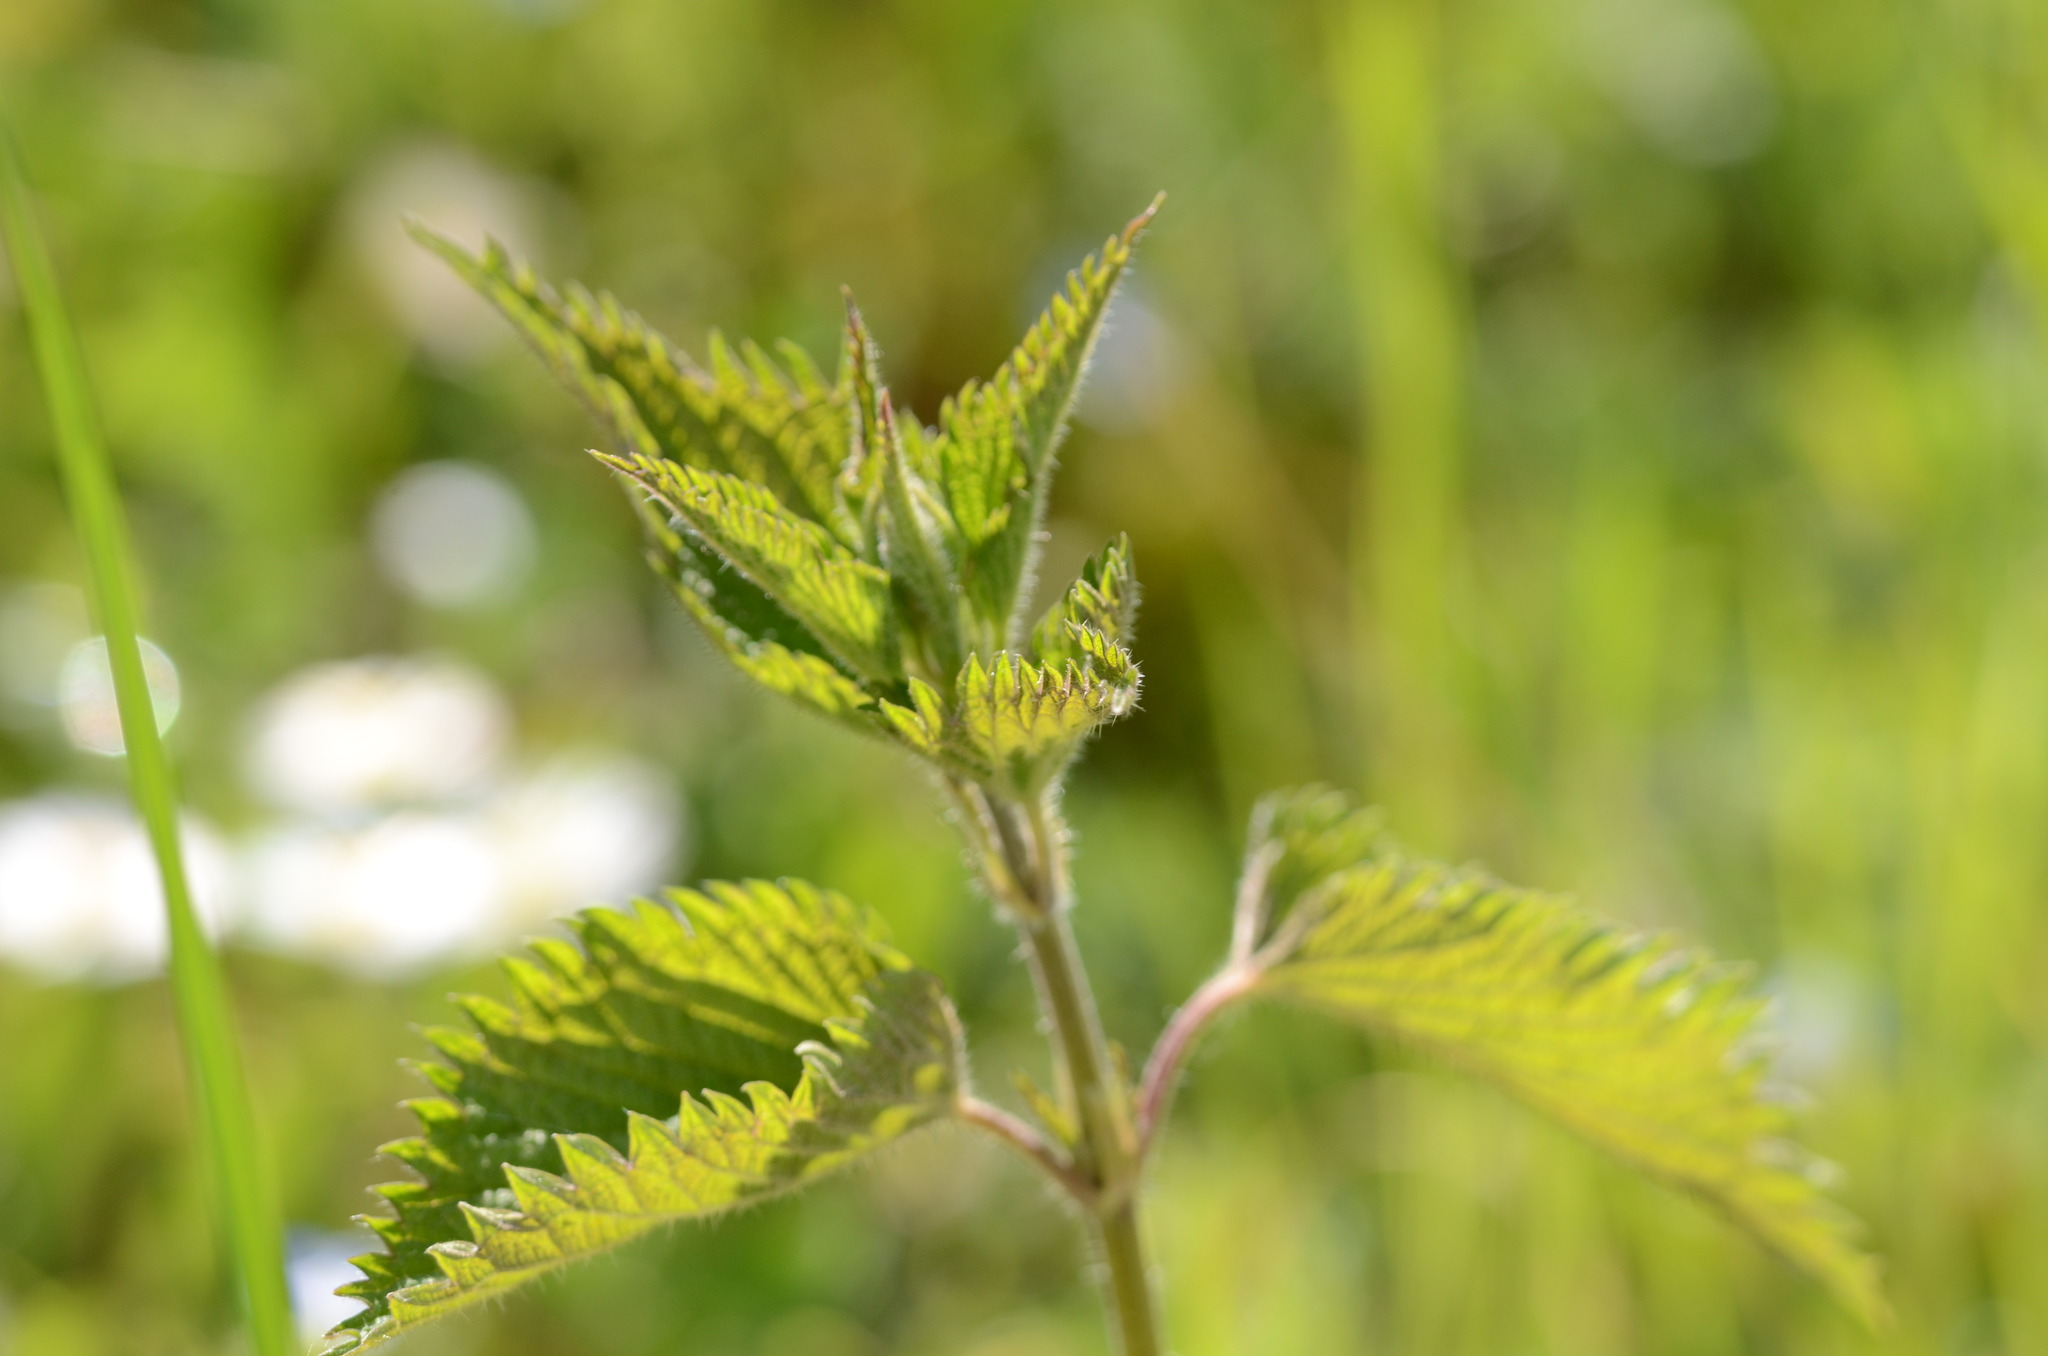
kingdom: Plantae
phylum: Tracheophyta
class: Magnoliopsida
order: Rosales
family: Urticaceae
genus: Urtica
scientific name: Urtica dioica
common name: Common nettle
